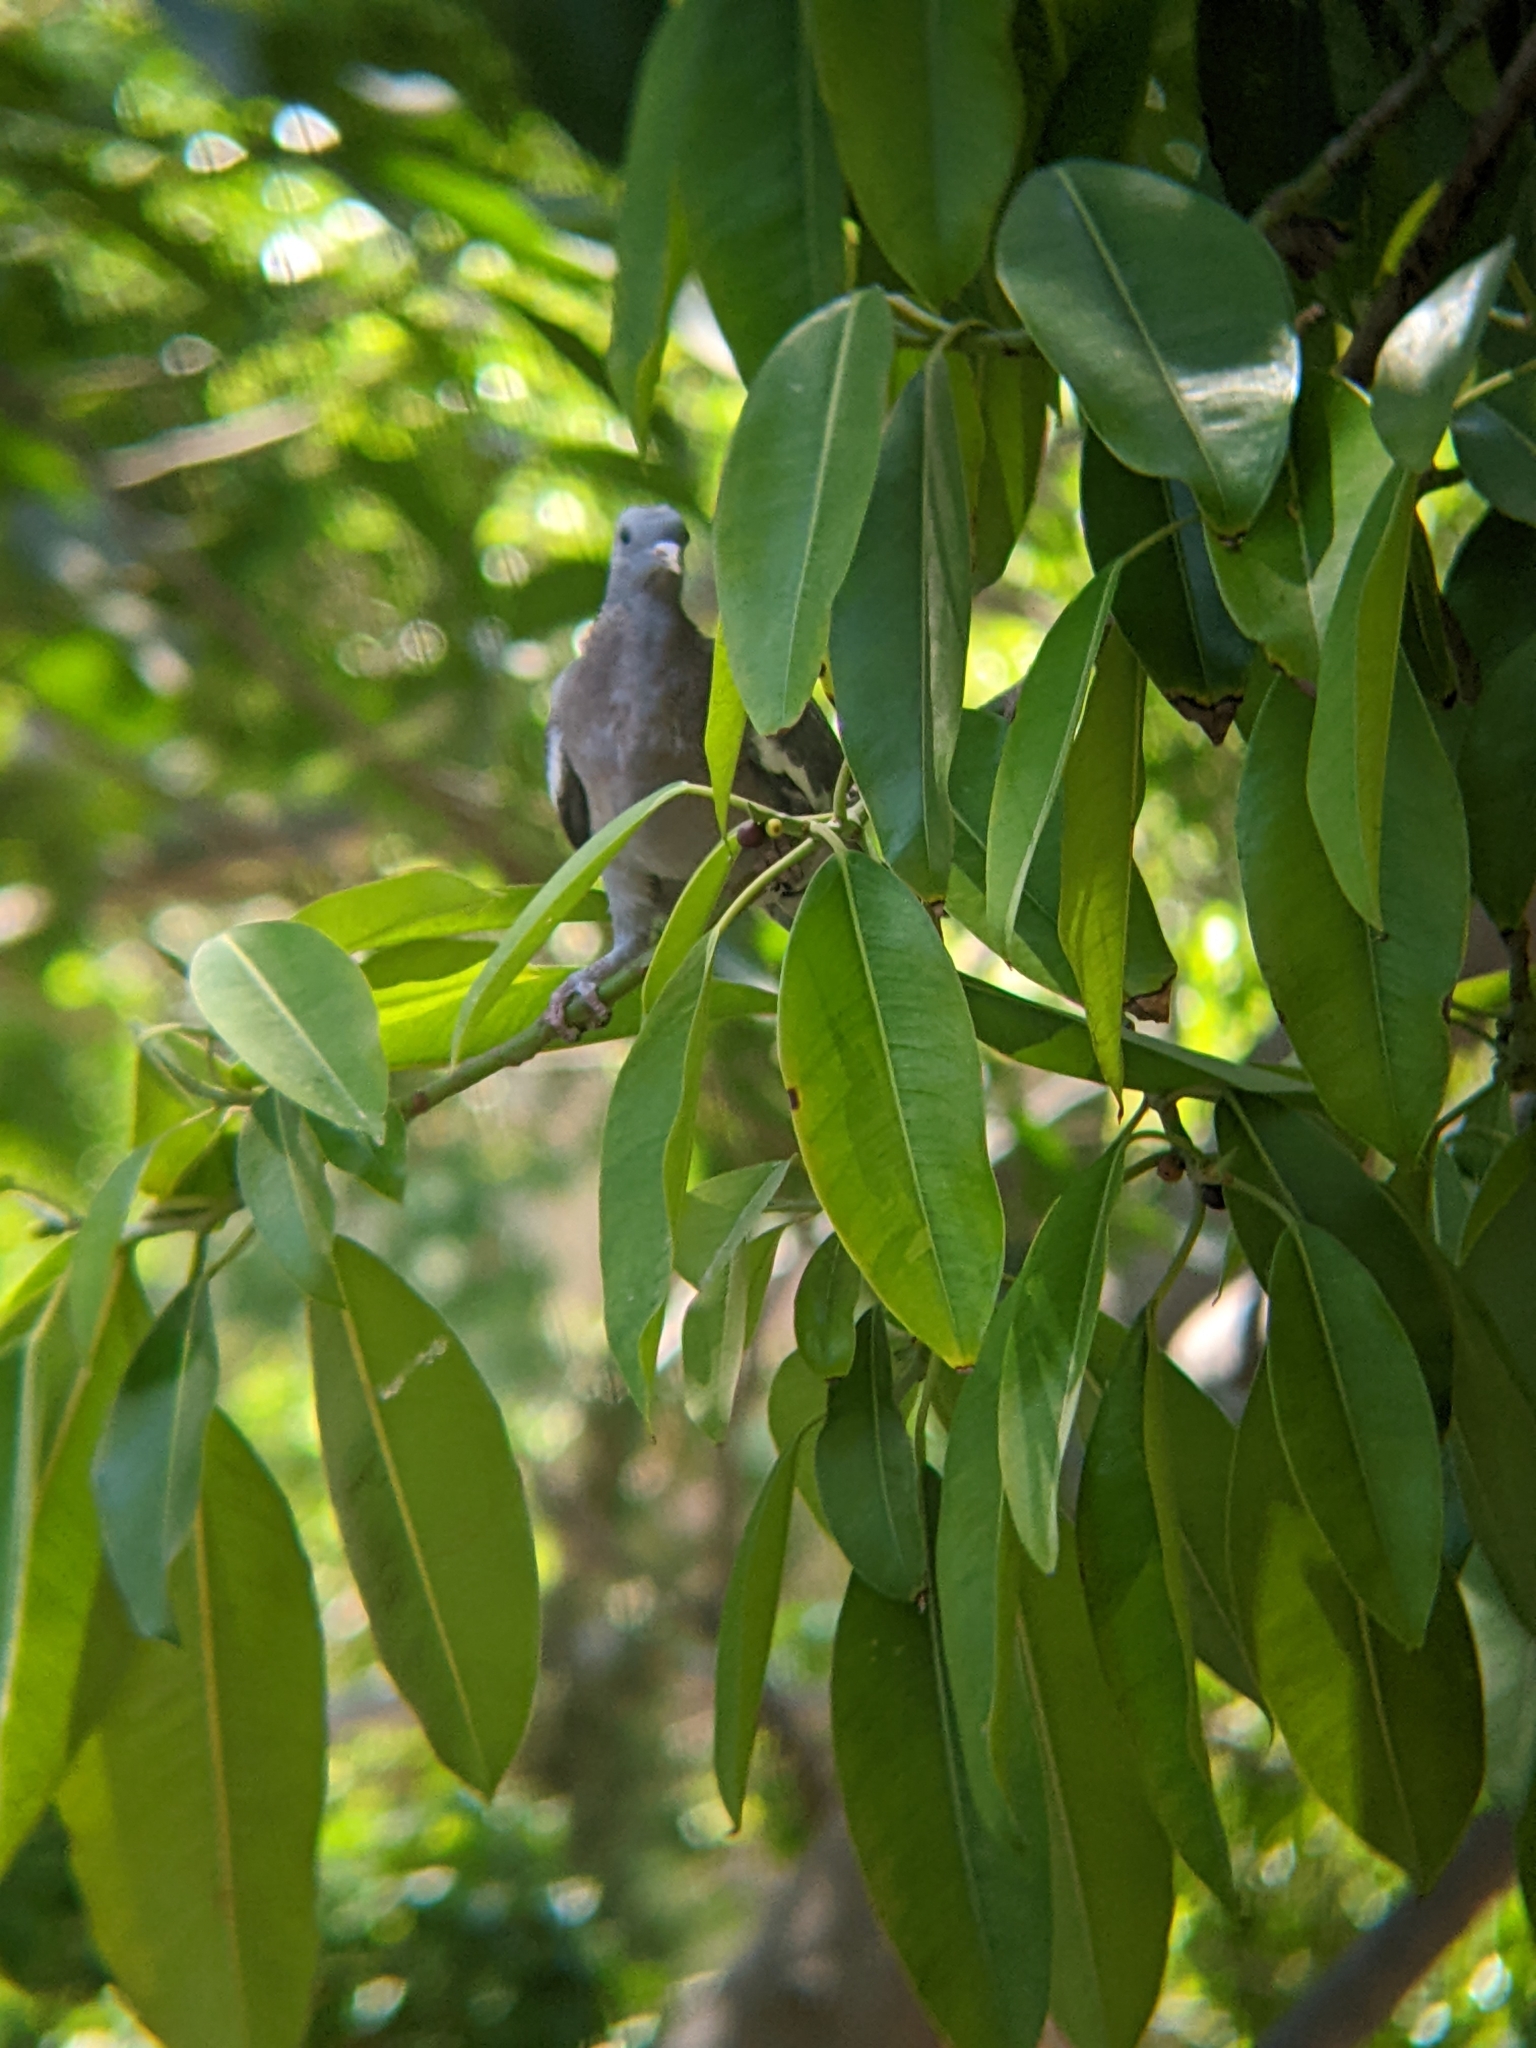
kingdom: Animalia
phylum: Chordata
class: Aves
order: Columbiformes
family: Columbidae
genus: Columba
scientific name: Columba palumbus
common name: Common wood pigeon
